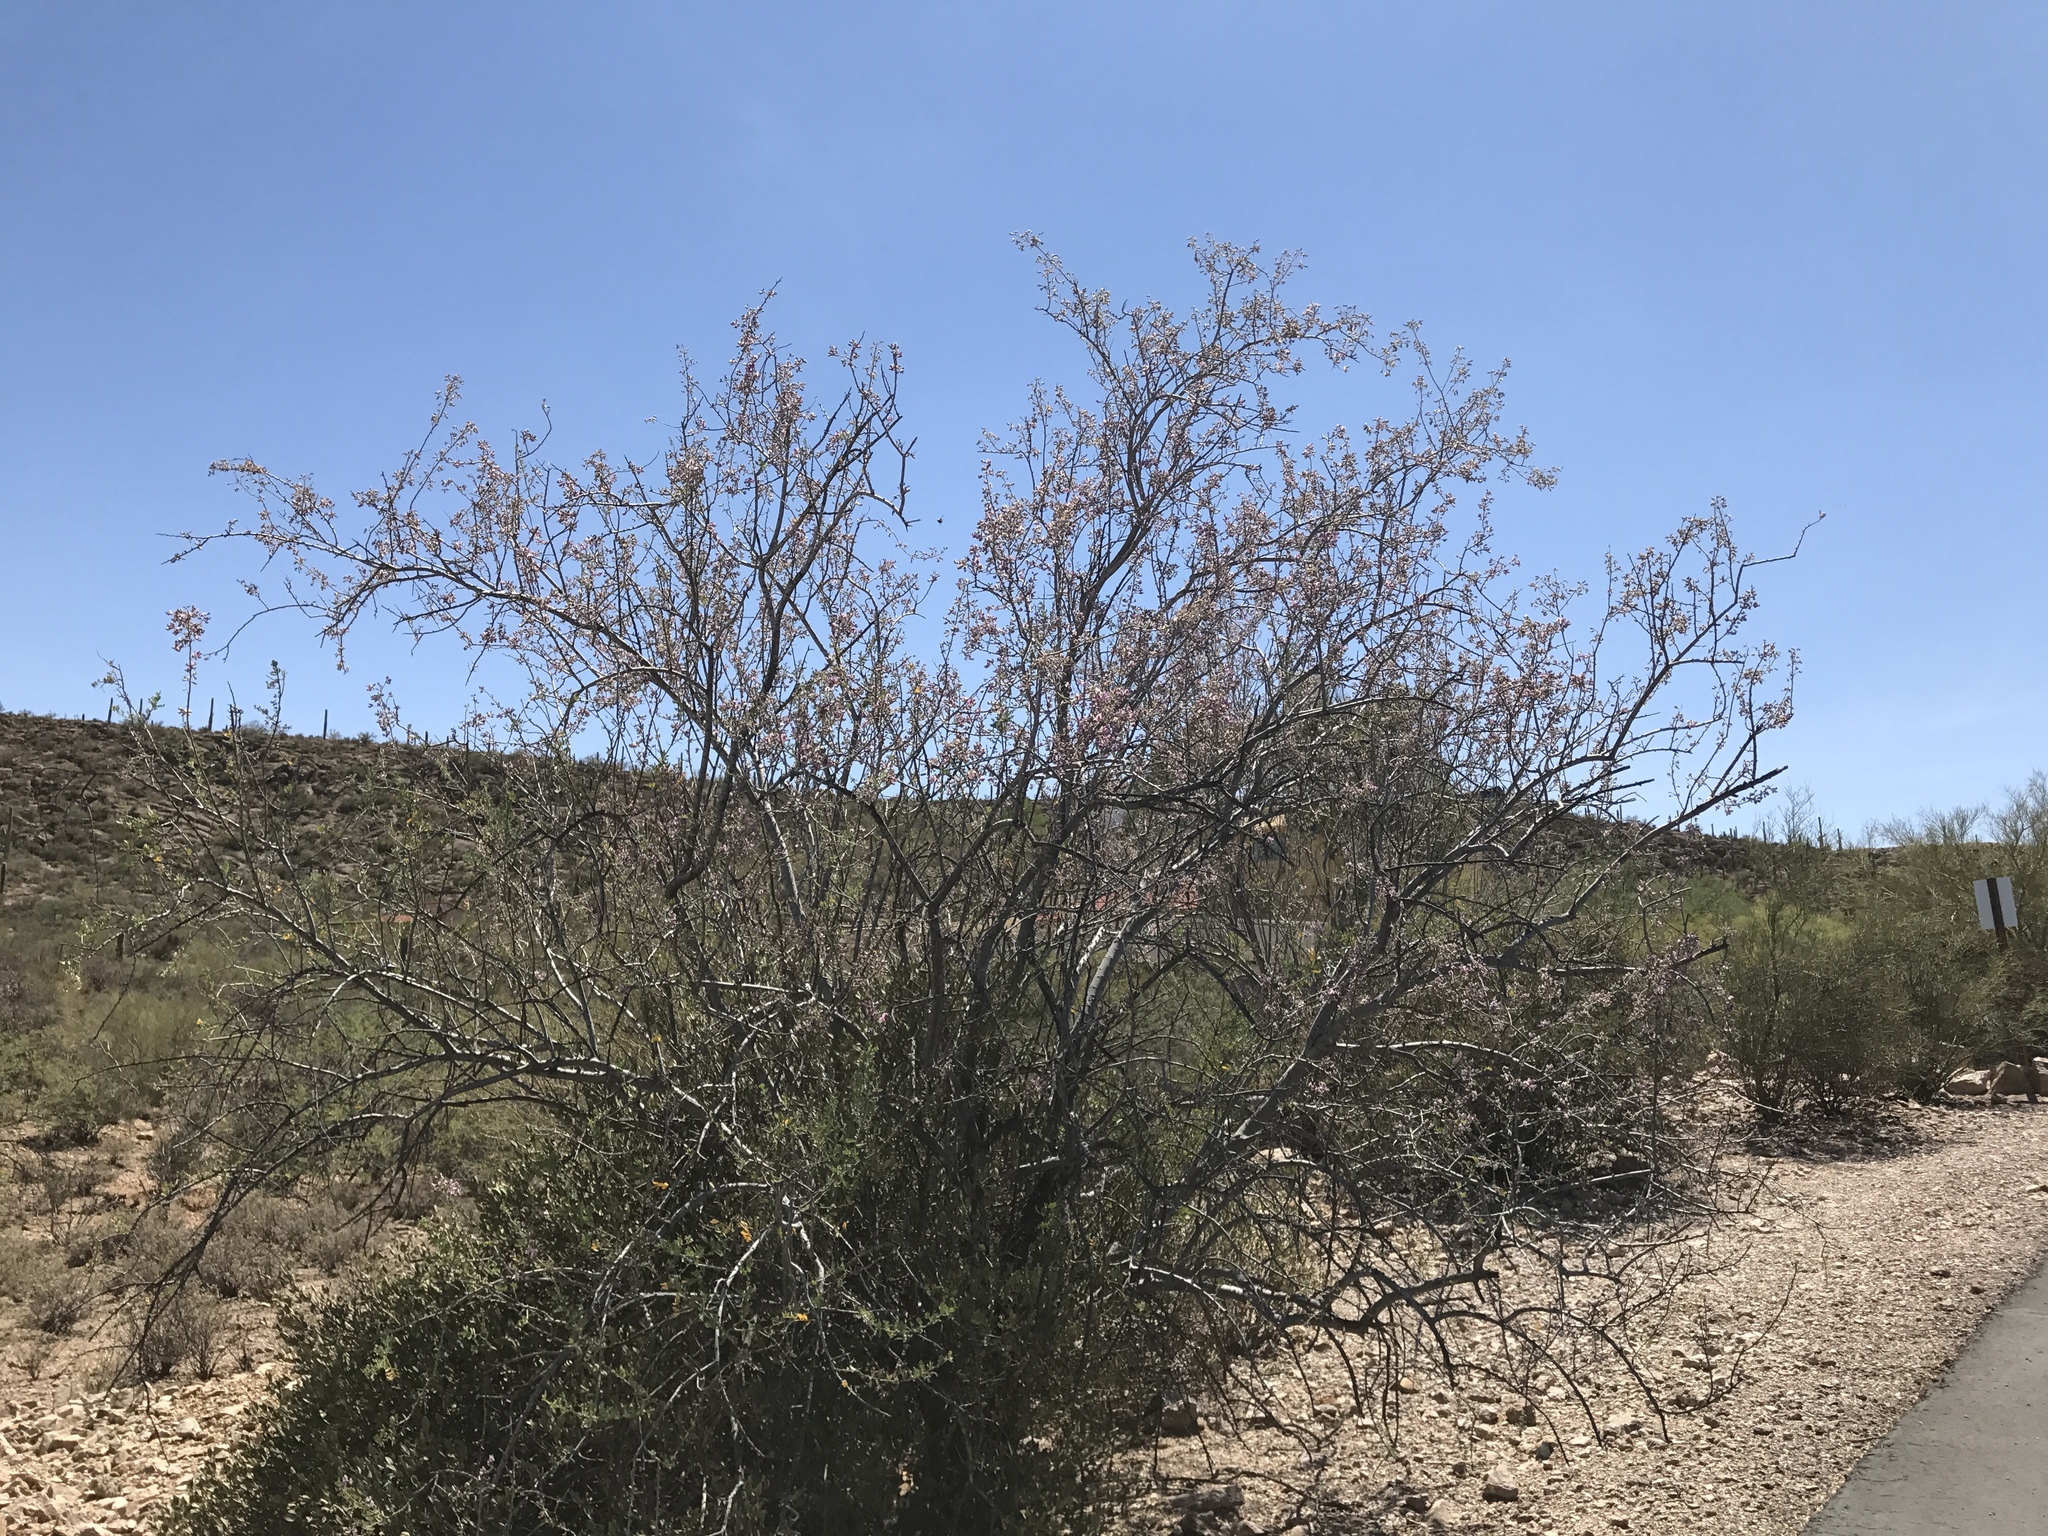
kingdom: Plantae
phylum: Tracheophyta
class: Magnoliopsida
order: Fabales
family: Fabaceae
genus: Olneya
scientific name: Olneya tesota
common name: Desert ironwood
